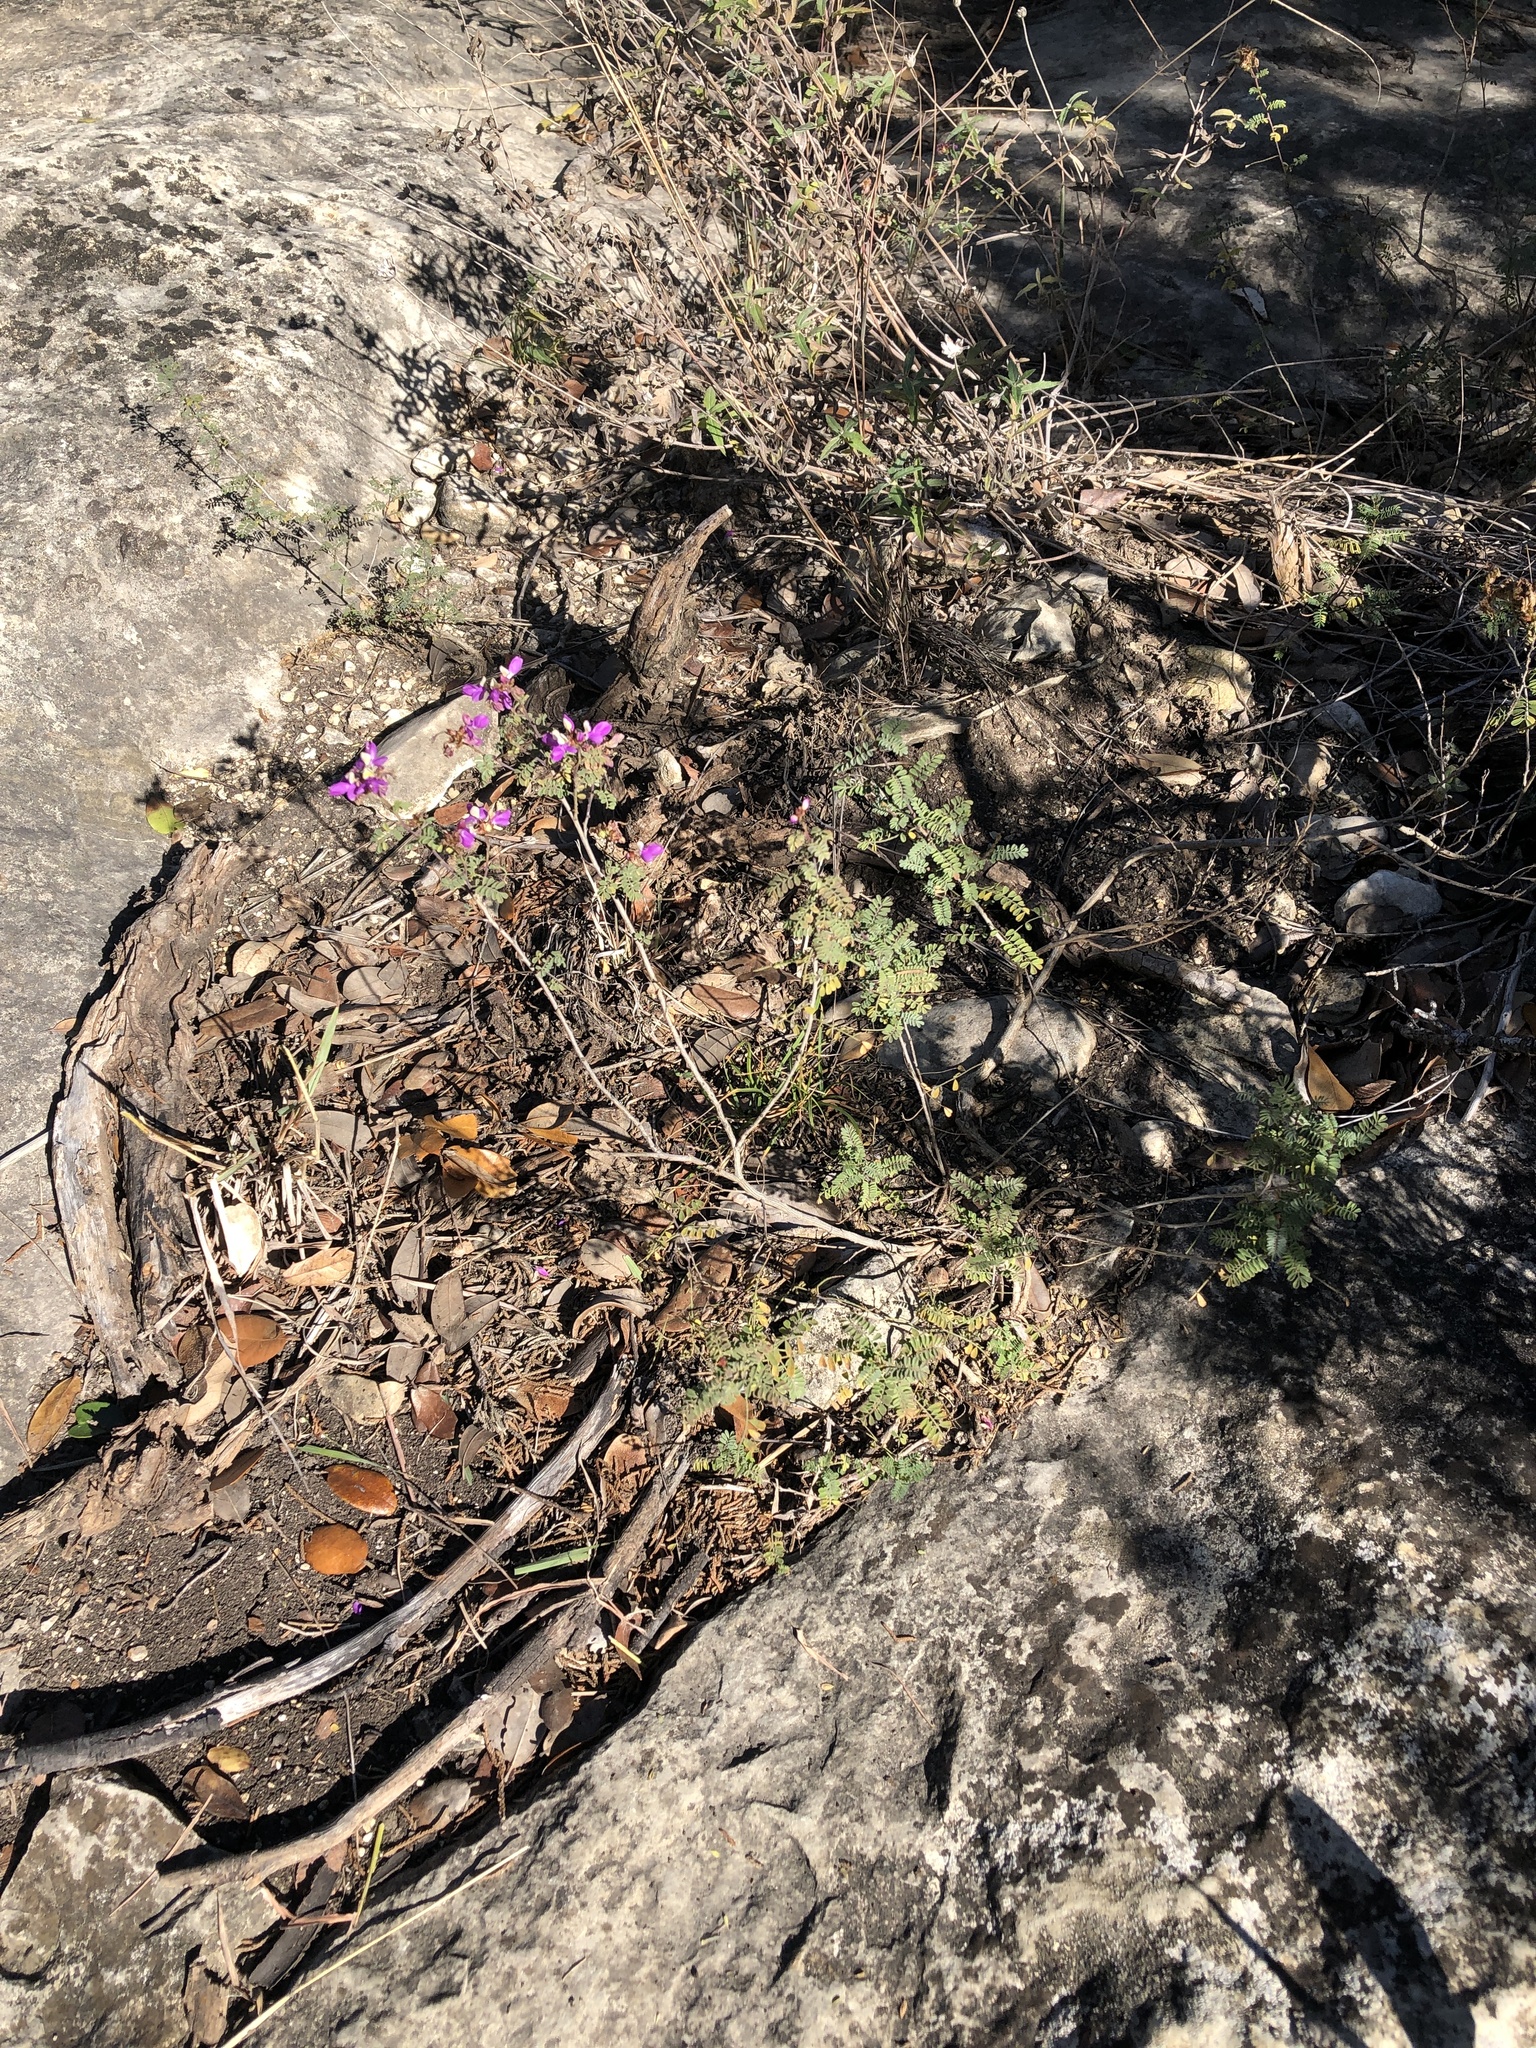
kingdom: Plantae
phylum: Tracheophyta
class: Magnoliopsida
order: Fabales
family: Fabaceae
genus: Dalea
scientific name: Dalea frutescens
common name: Black dalea
